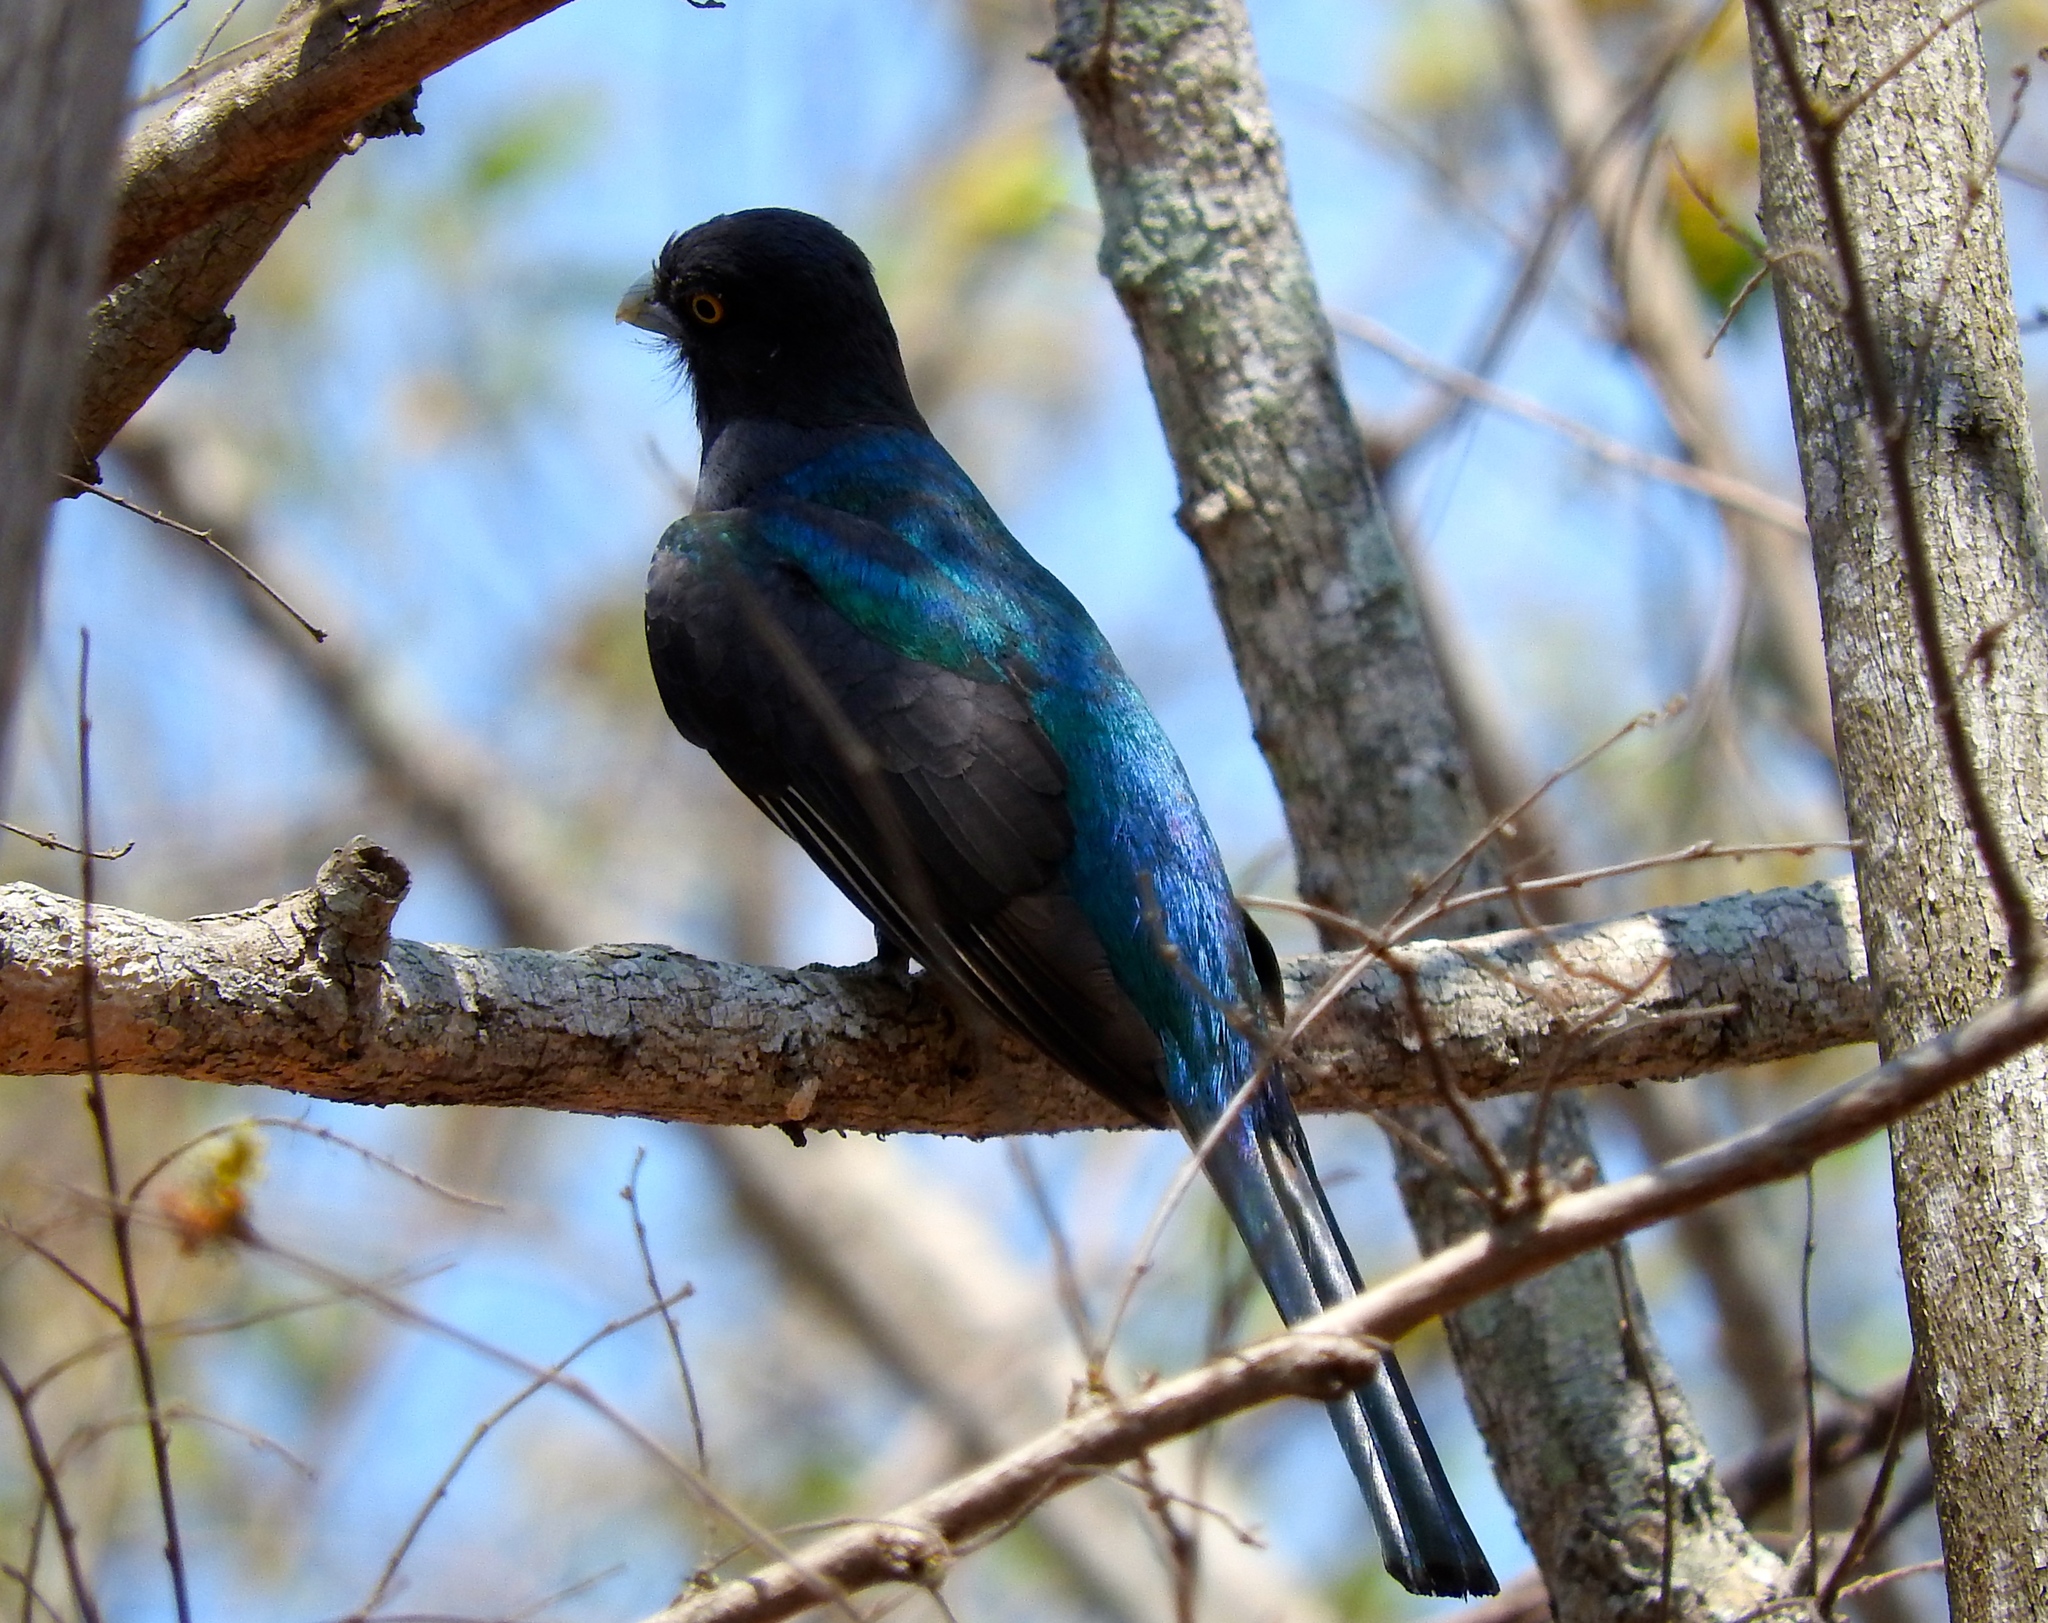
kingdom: Animalia
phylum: Chordata
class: Aves
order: Trogoniformes
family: Trogonidae
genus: Trogon
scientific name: Trogon citreolus
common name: Citreoline trogon
